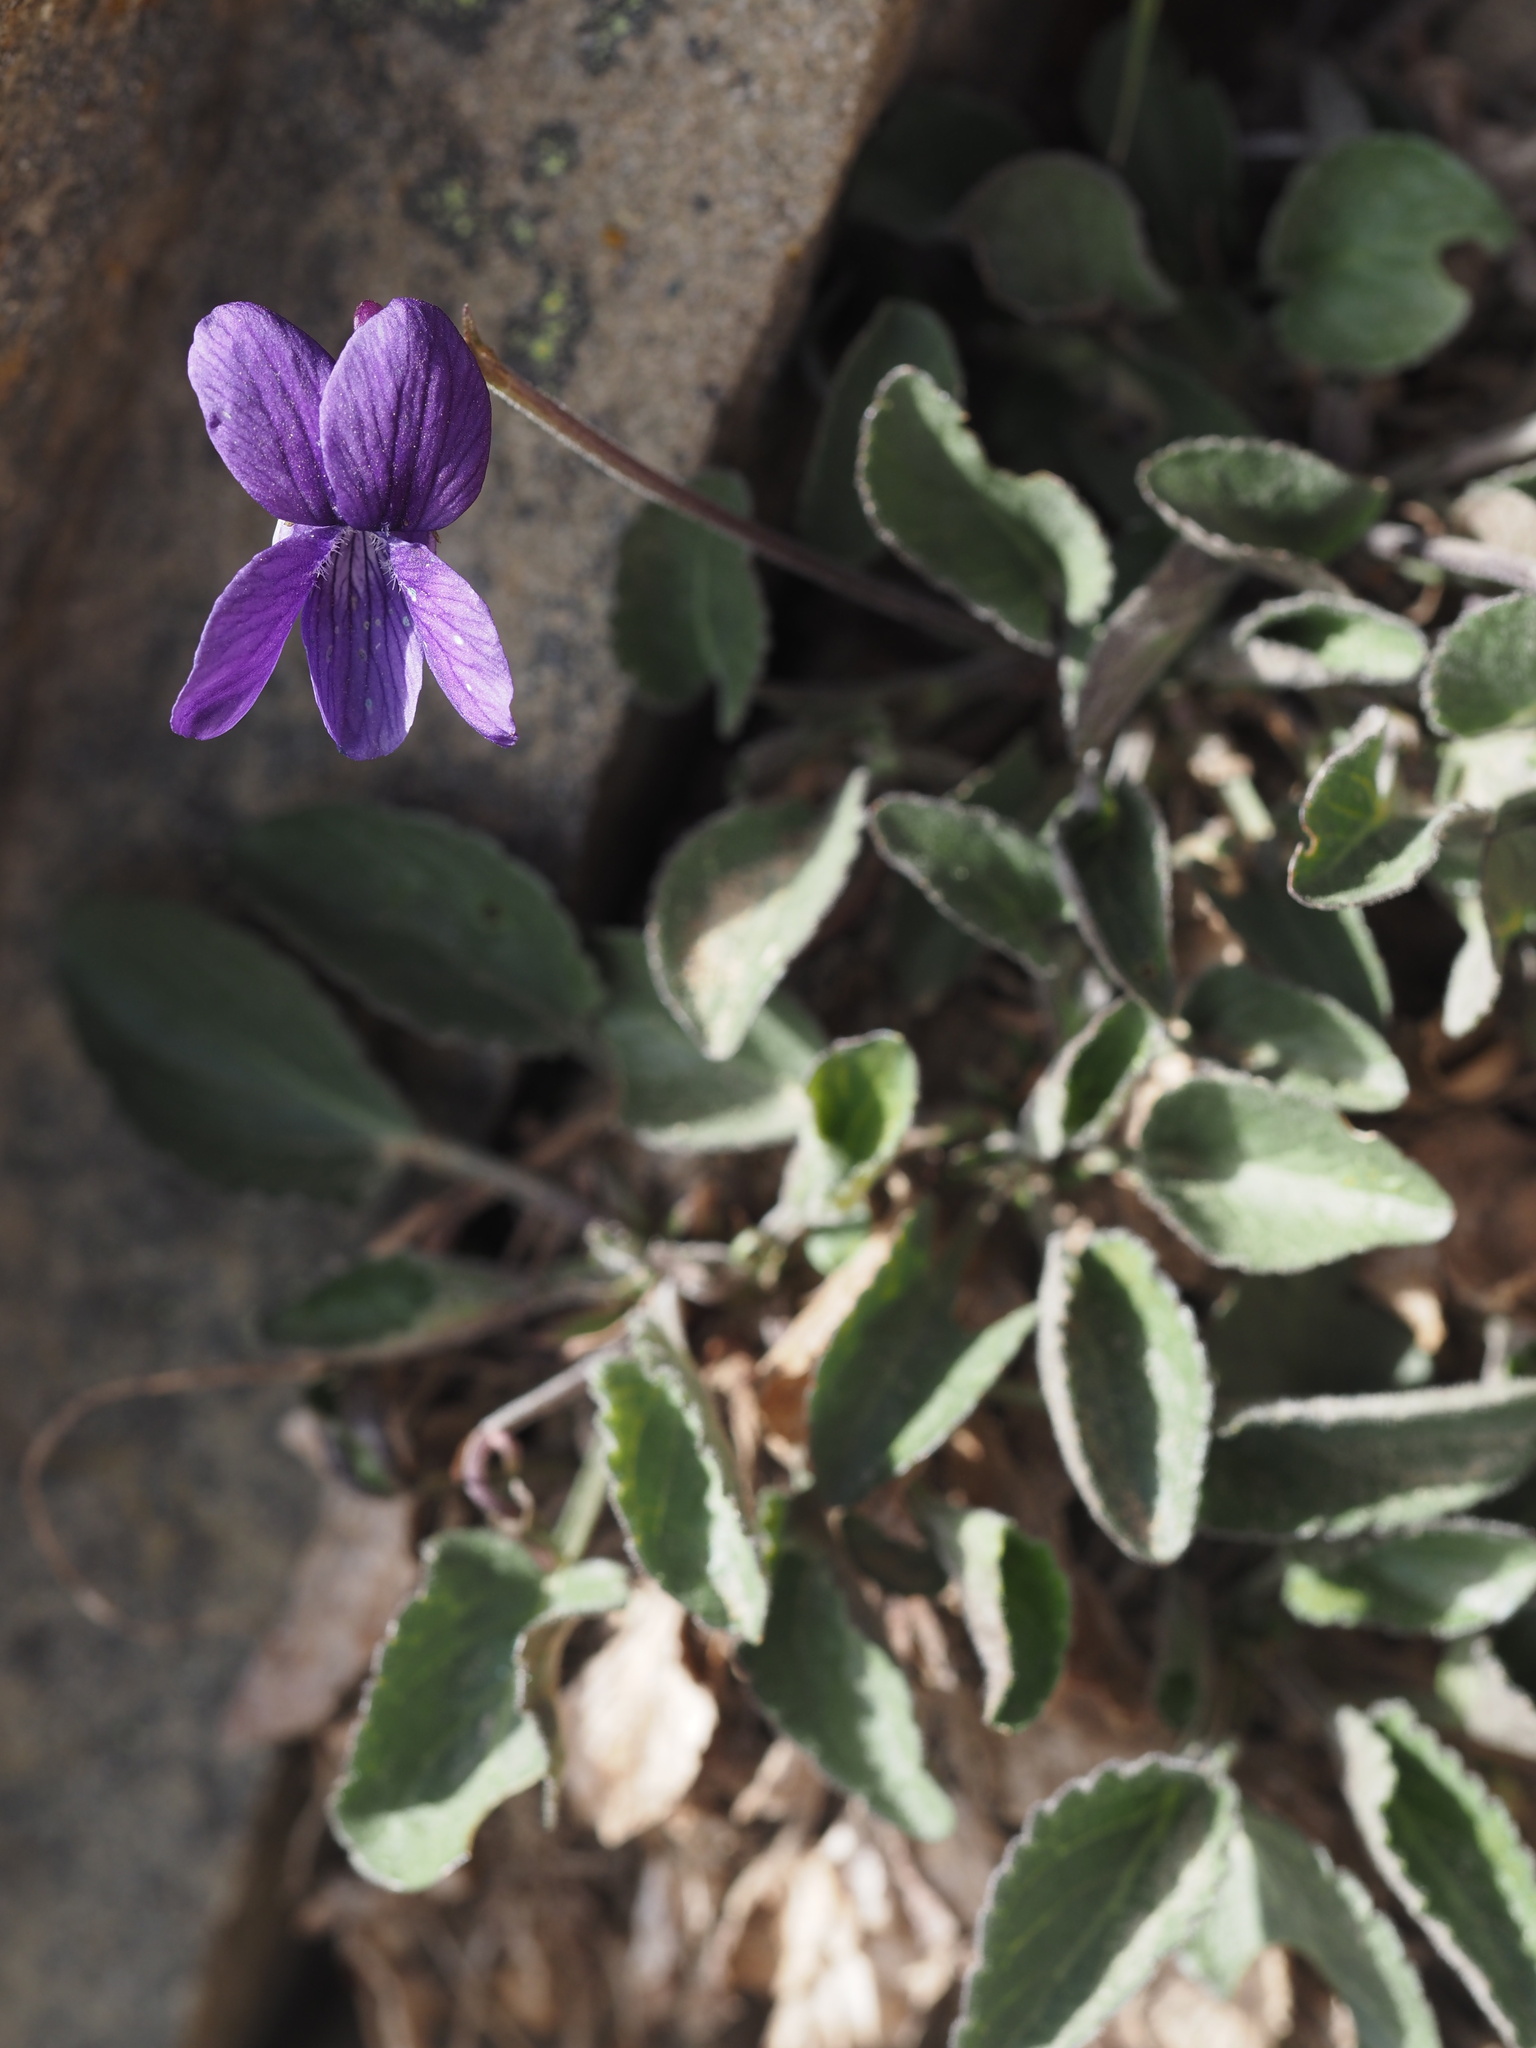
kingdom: Plantae
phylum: Tracheophyta
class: Magnoliopsida
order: Malpighiales
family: Violaceae
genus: Viola
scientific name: Viola adunca
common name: Sand violet
